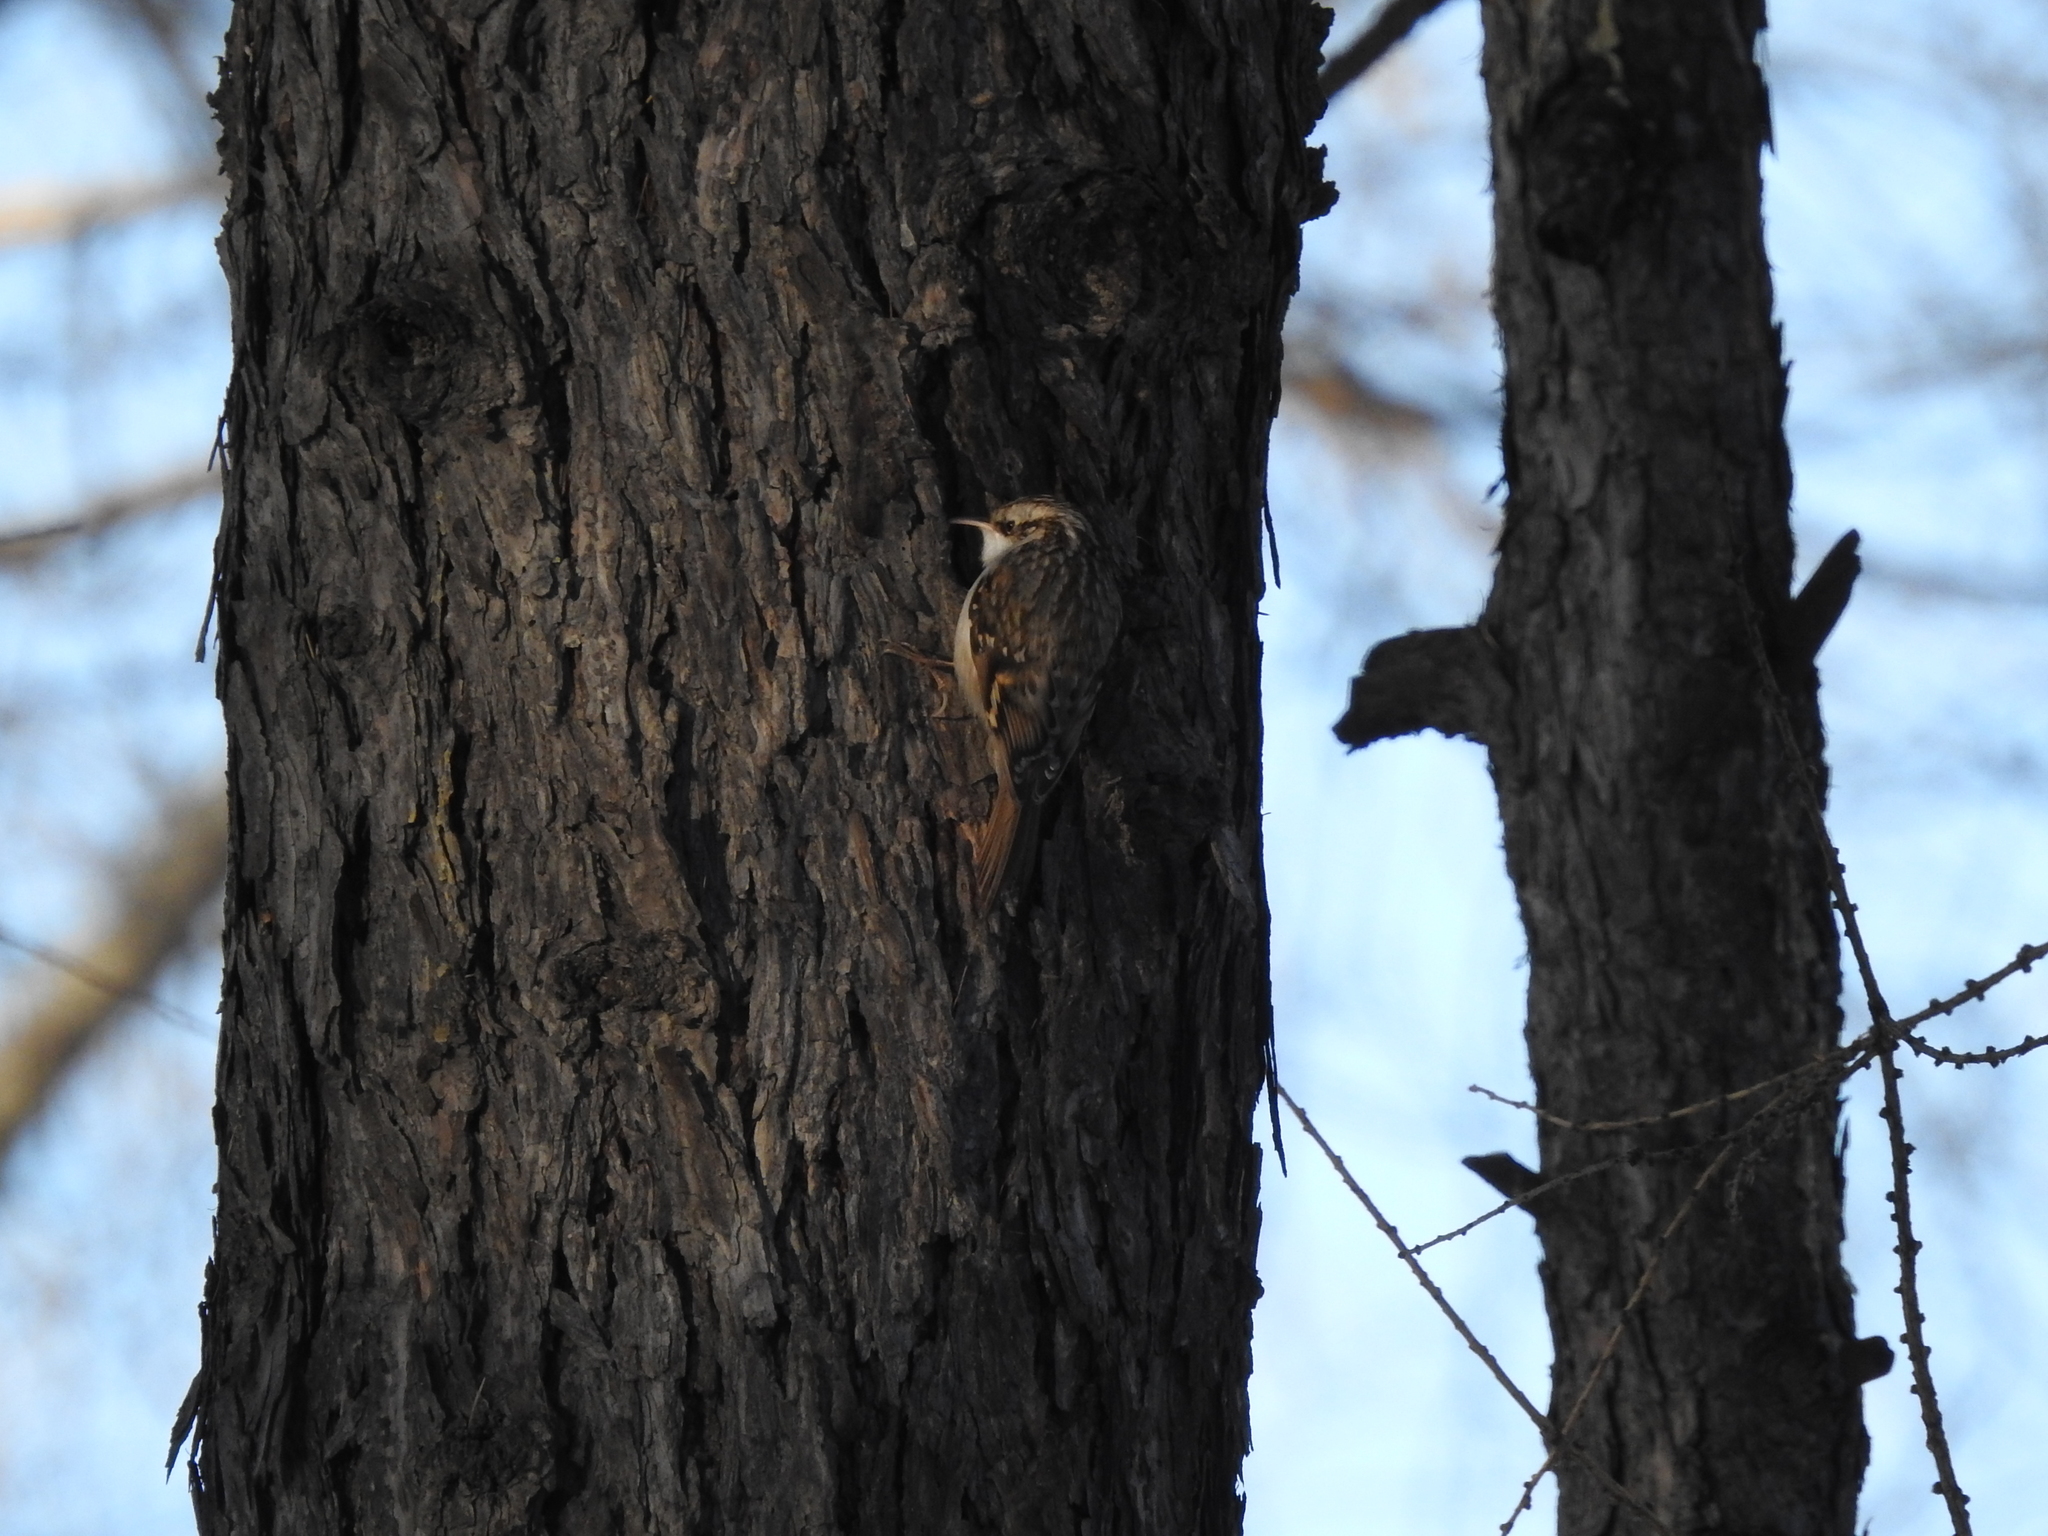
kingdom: Animalia
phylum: Chordata
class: Aves
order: Passeriformes
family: Certhiidae
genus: Certhia
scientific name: Certhia familiaris
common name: Eurasian treecreeper
